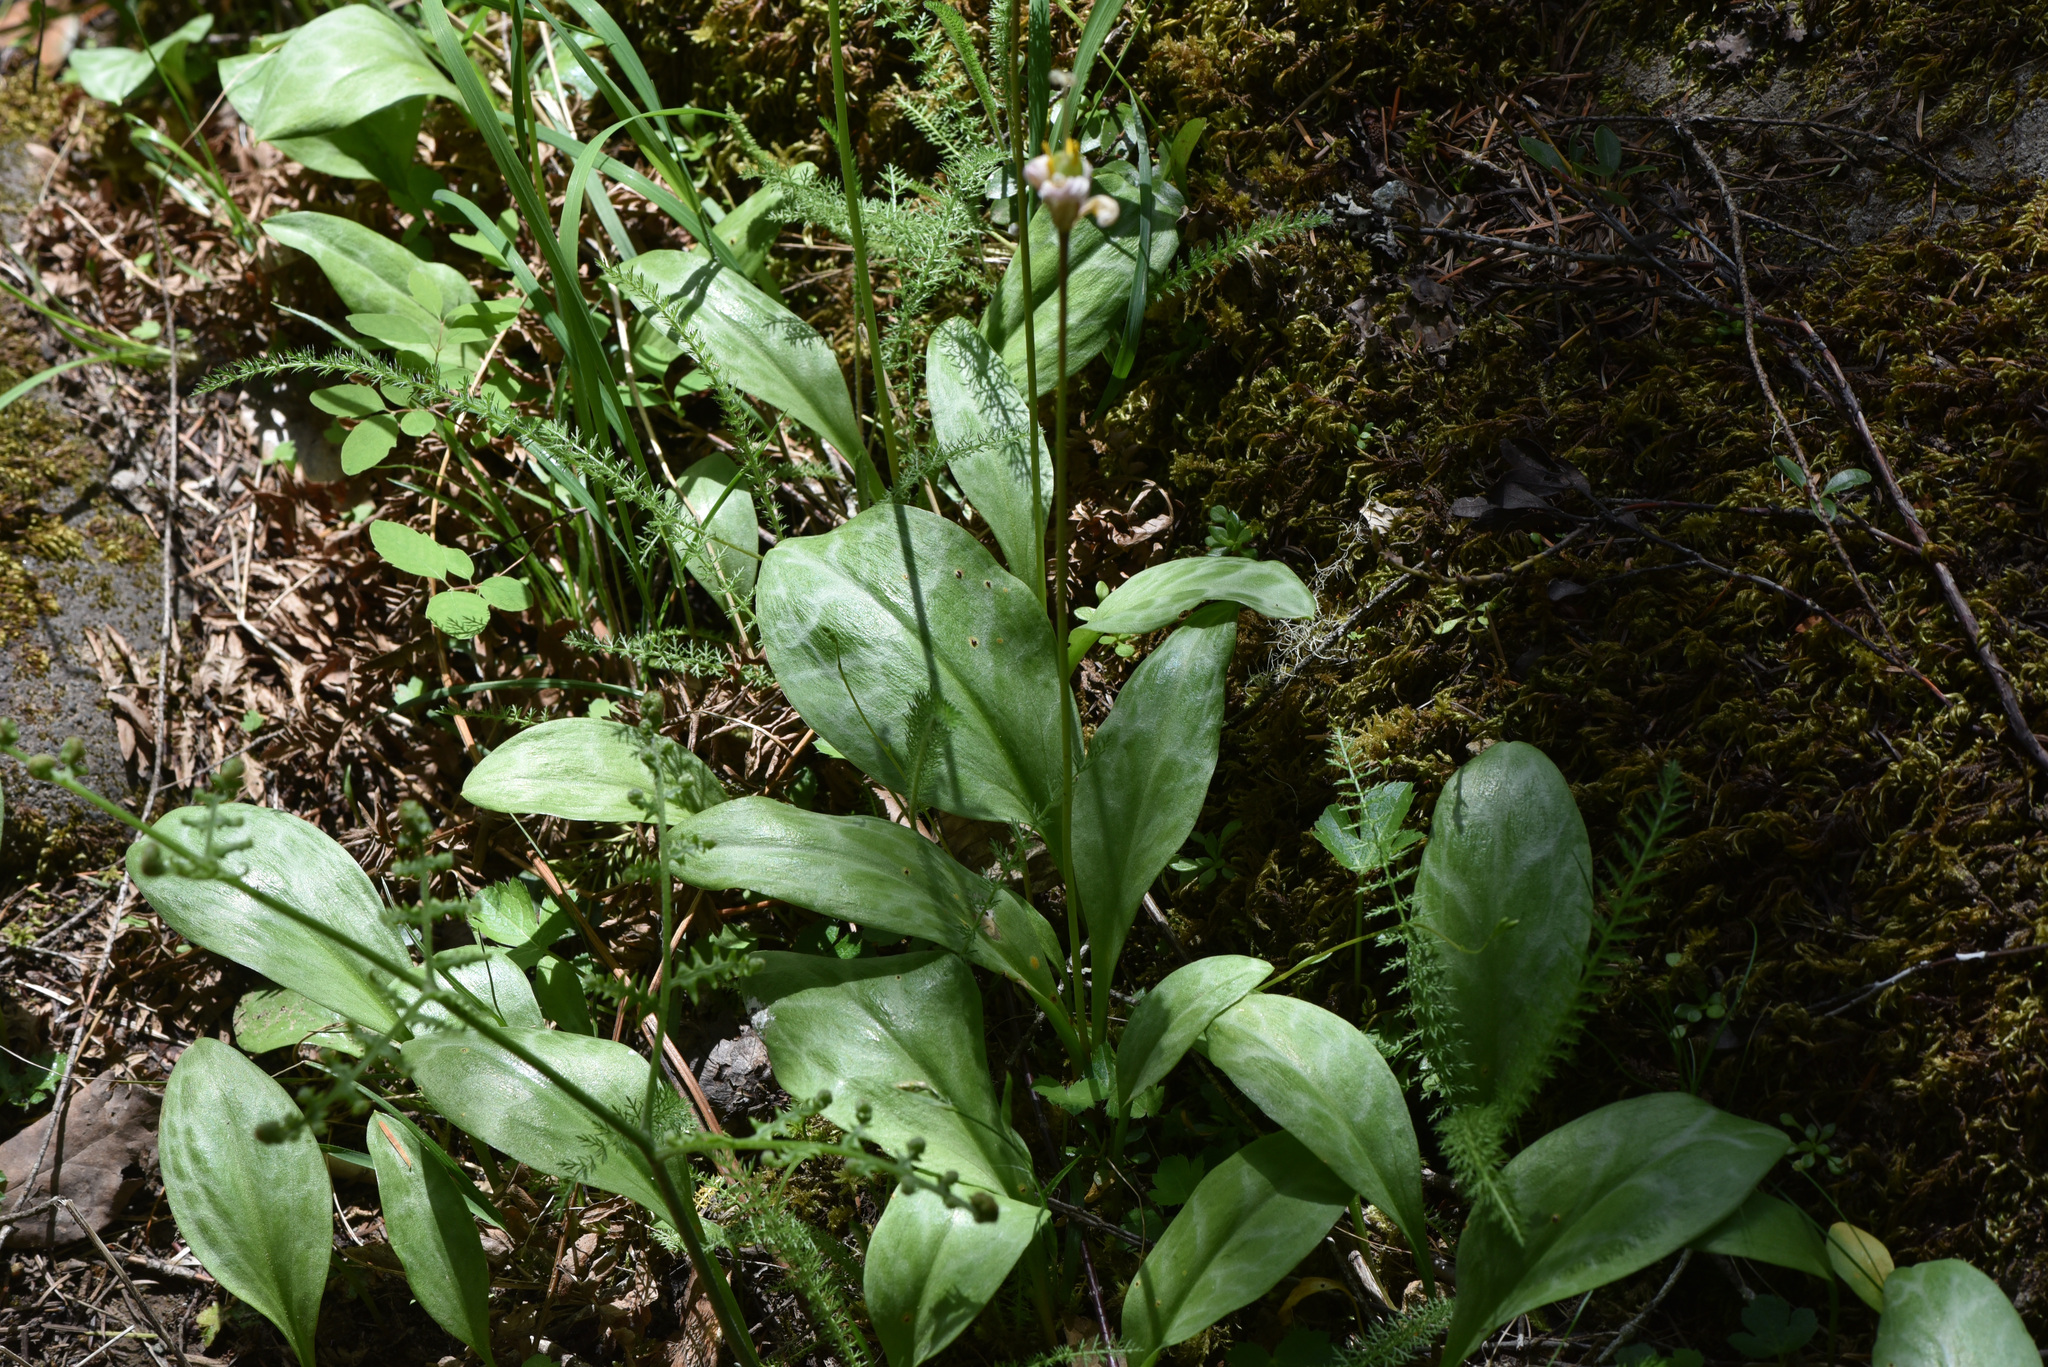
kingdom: Plantae
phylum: Tracheophyta
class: Liliopsida
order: Liliales
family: Liliaceae
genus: Erythronium
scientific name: Erythronium oregonum
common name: Giant adder's-tongue
